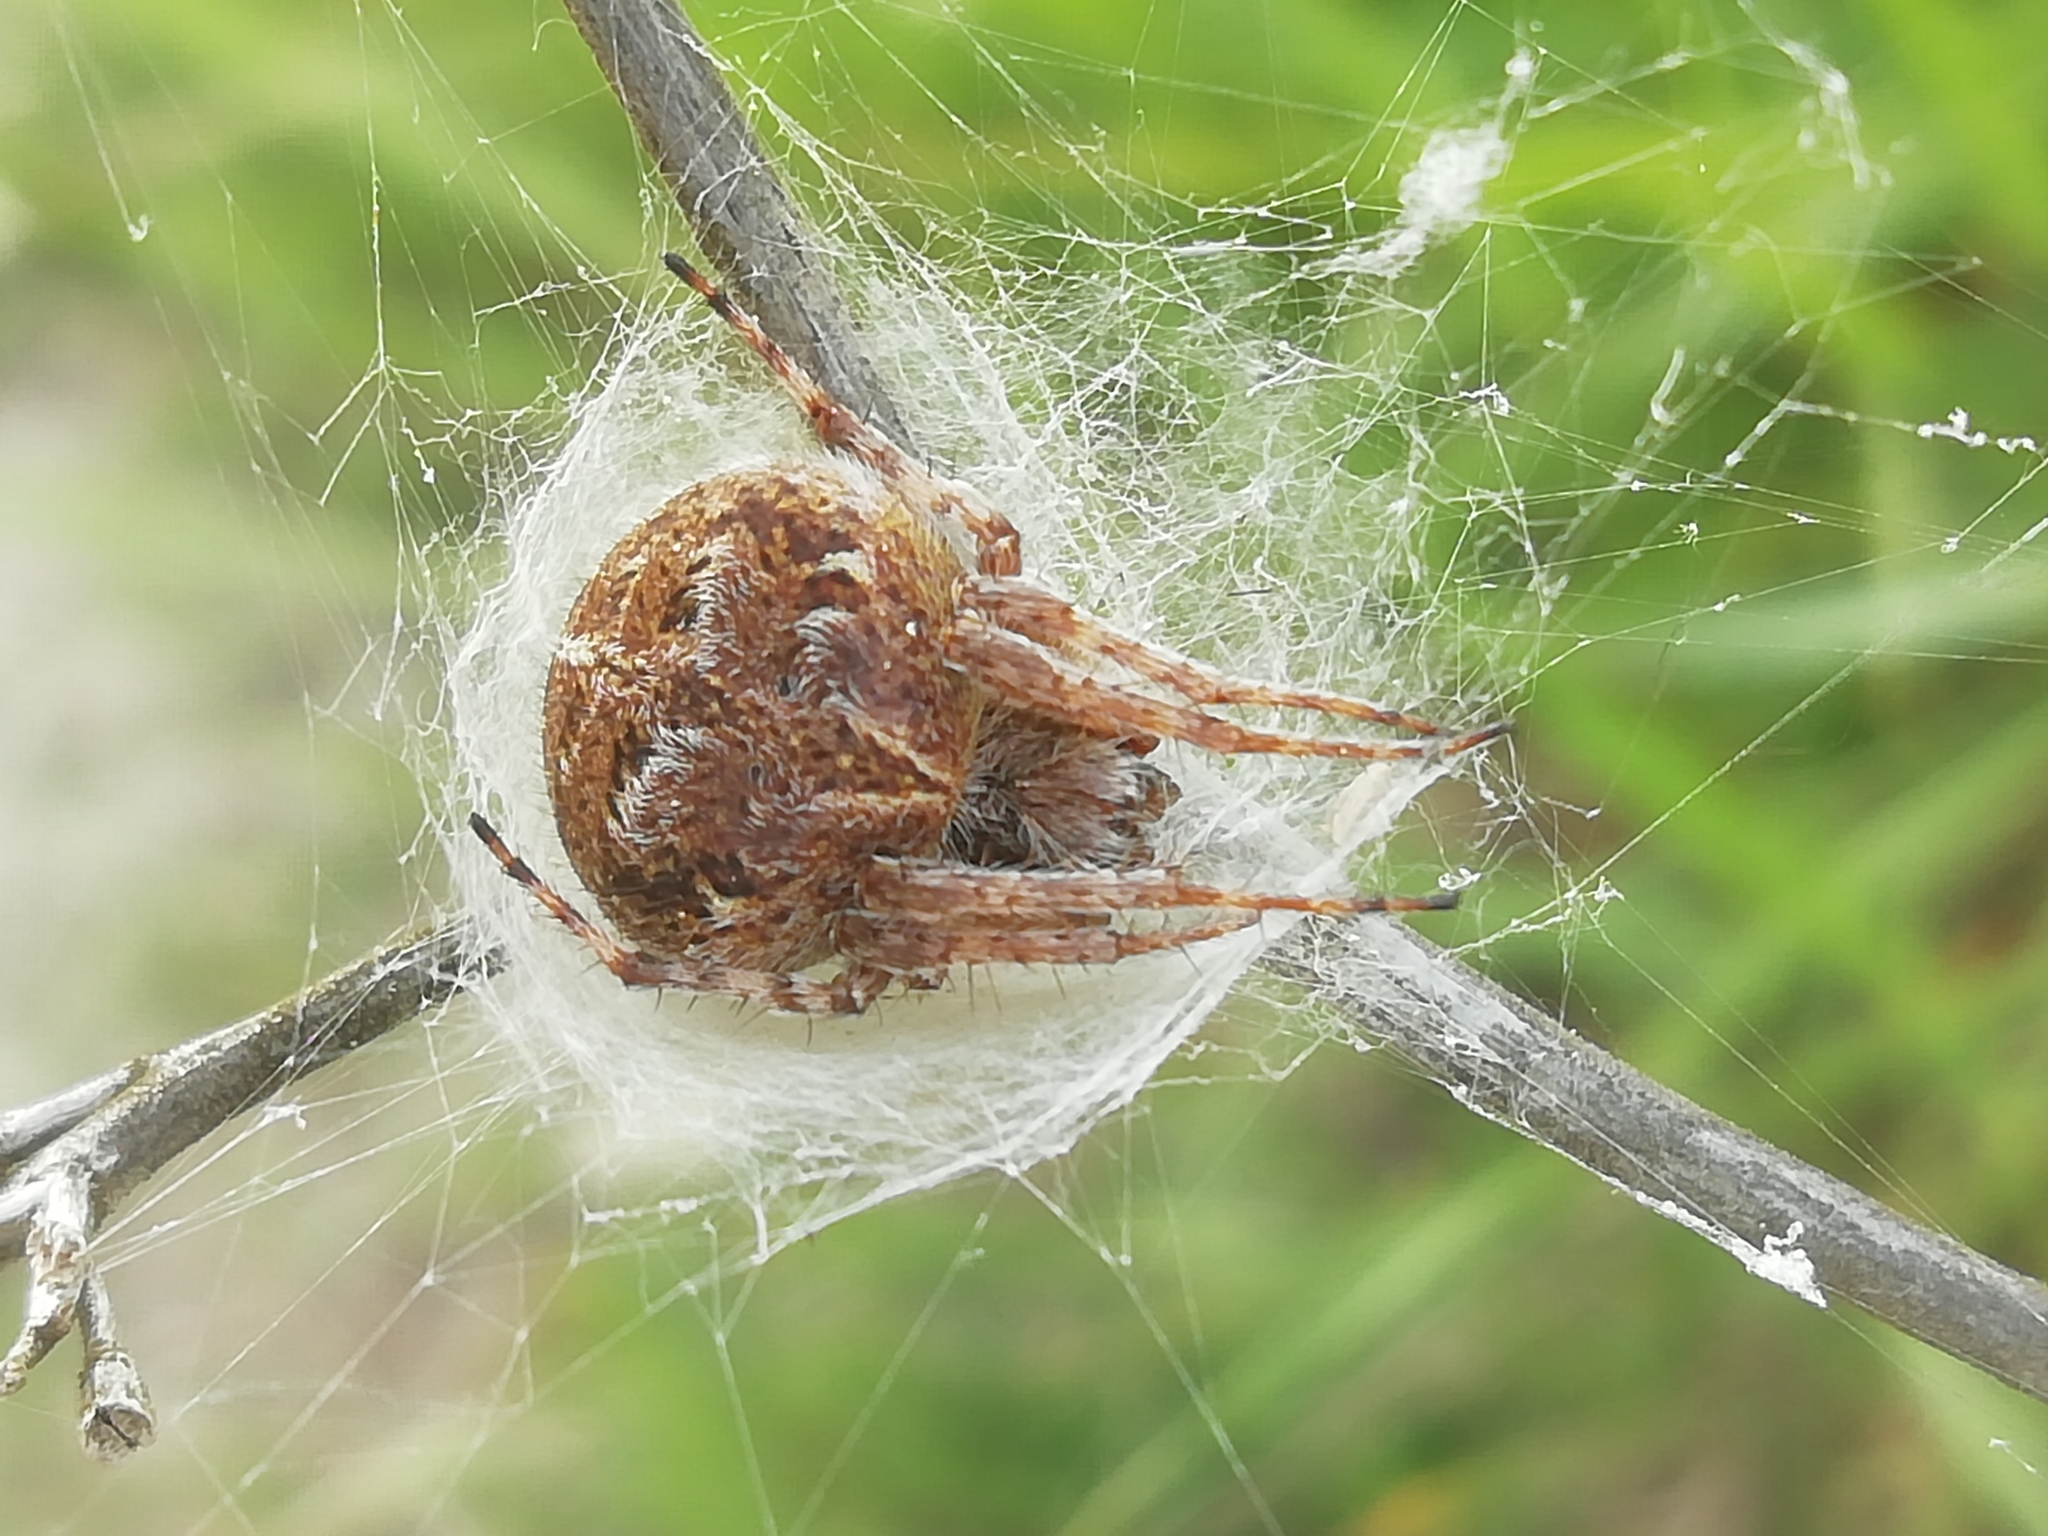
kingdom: Animalia
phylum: Arthropoda
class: Arachnida
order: Araneae
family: Araneidae
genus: Agalenatea
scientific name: Agalenatea redii
